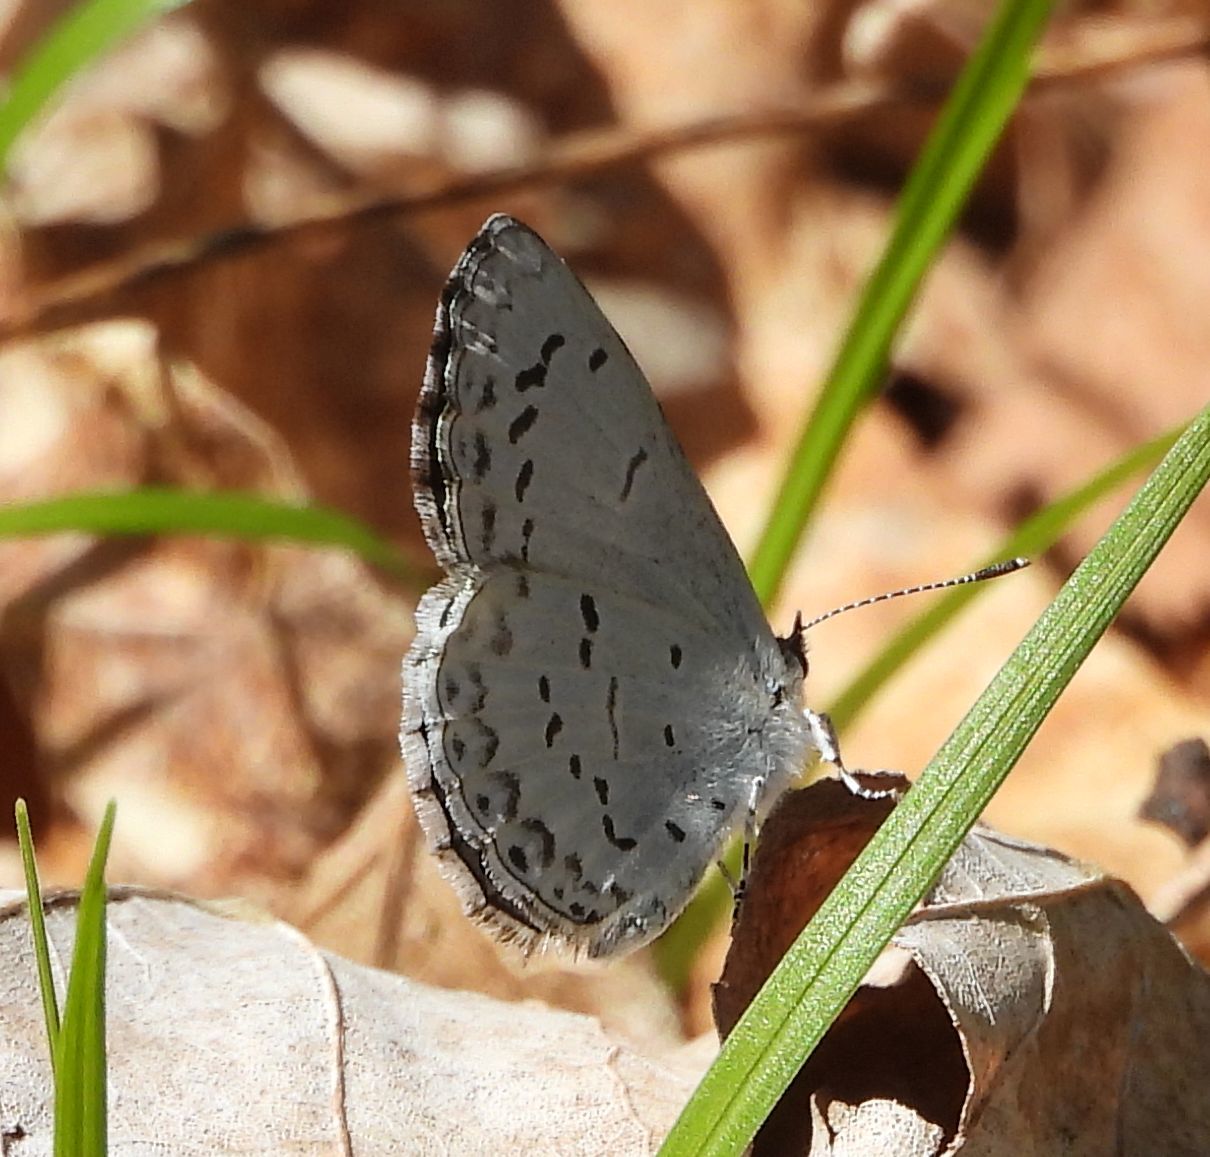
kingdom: Animalia
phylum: Arthropoda
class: Insecta
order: Lepidoptera
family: Lycaenidae
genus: Celastrina
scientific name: Celastrina lucia
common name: Lucia azure
